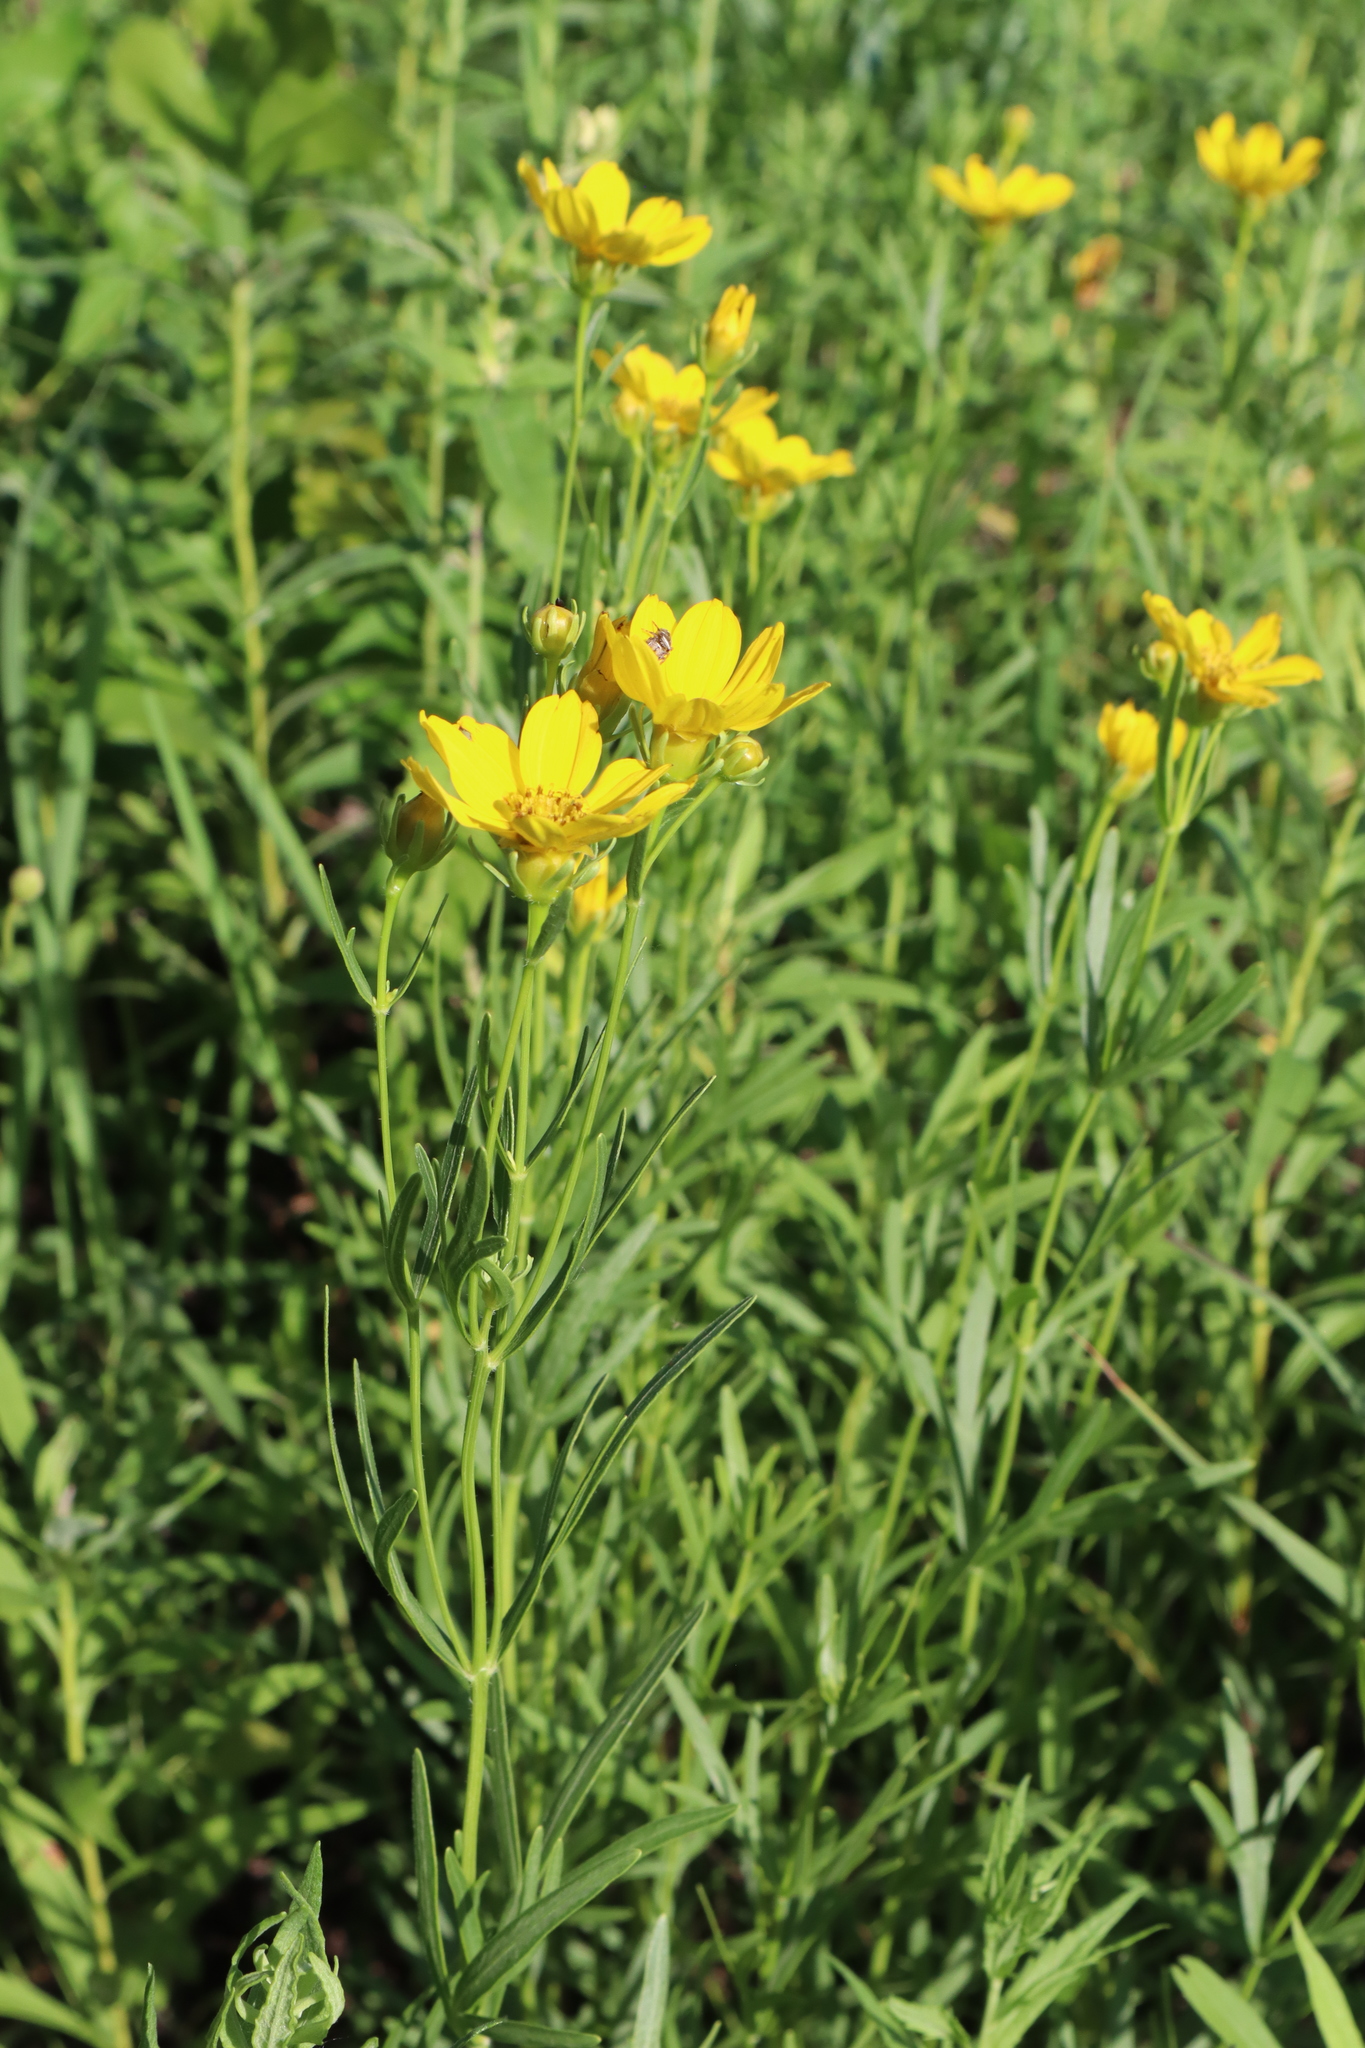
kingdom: Plantae
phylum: Tracheophyta
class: Magnoliopsida
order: Asterales
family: Asteraceae
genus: Coreopsis
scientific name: Coreopsis palmata
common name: Prairie coreopsis
